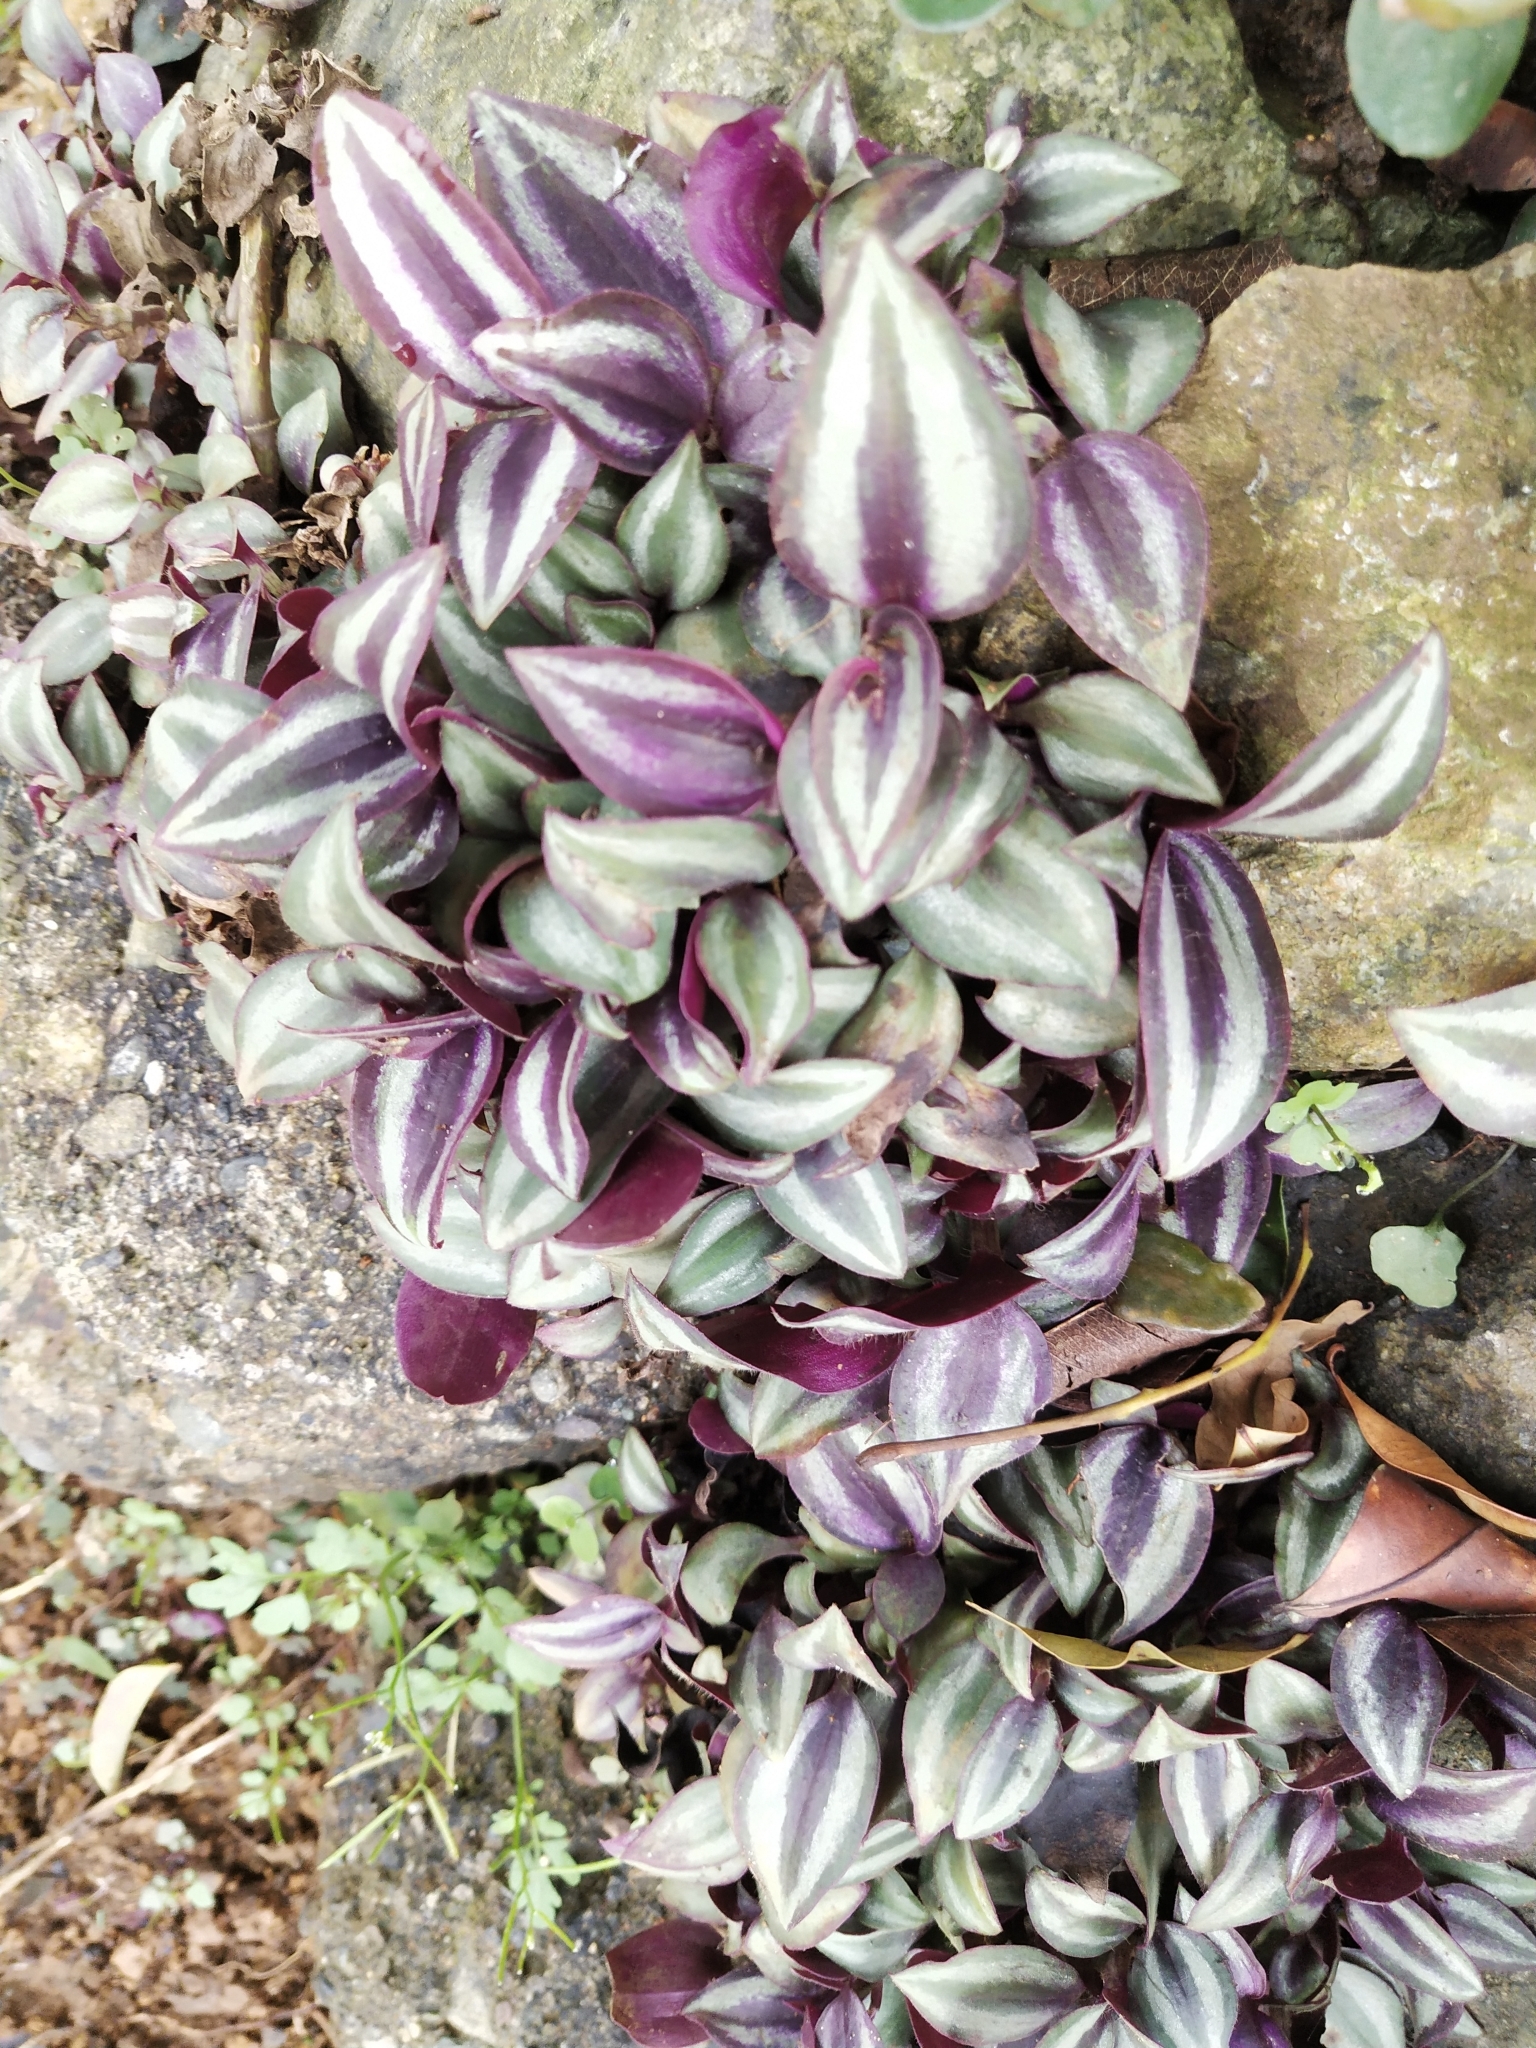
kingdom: Plantae
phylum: Tracheophyta
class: Liliopsida
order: Commelinales
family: Commelinaceae
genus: Tradescantia
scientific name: Tradescantia zebrina
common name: Inchplant
